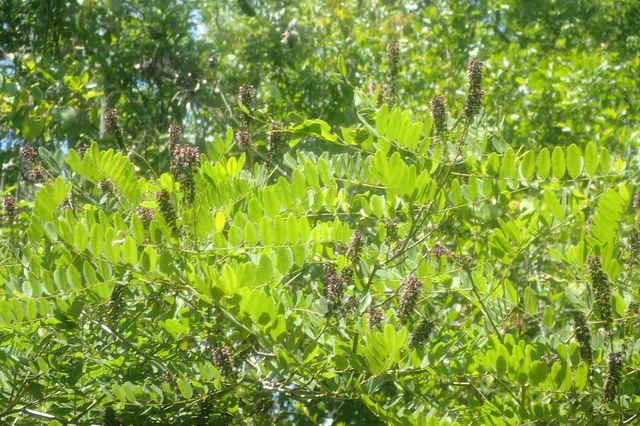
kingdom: Plantae
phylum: Tracheophyta
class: Magnoliopsida
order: Fabales
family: Fabaceae
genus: Amorpha
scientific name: Amorpha fruticosa
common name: False indigo
